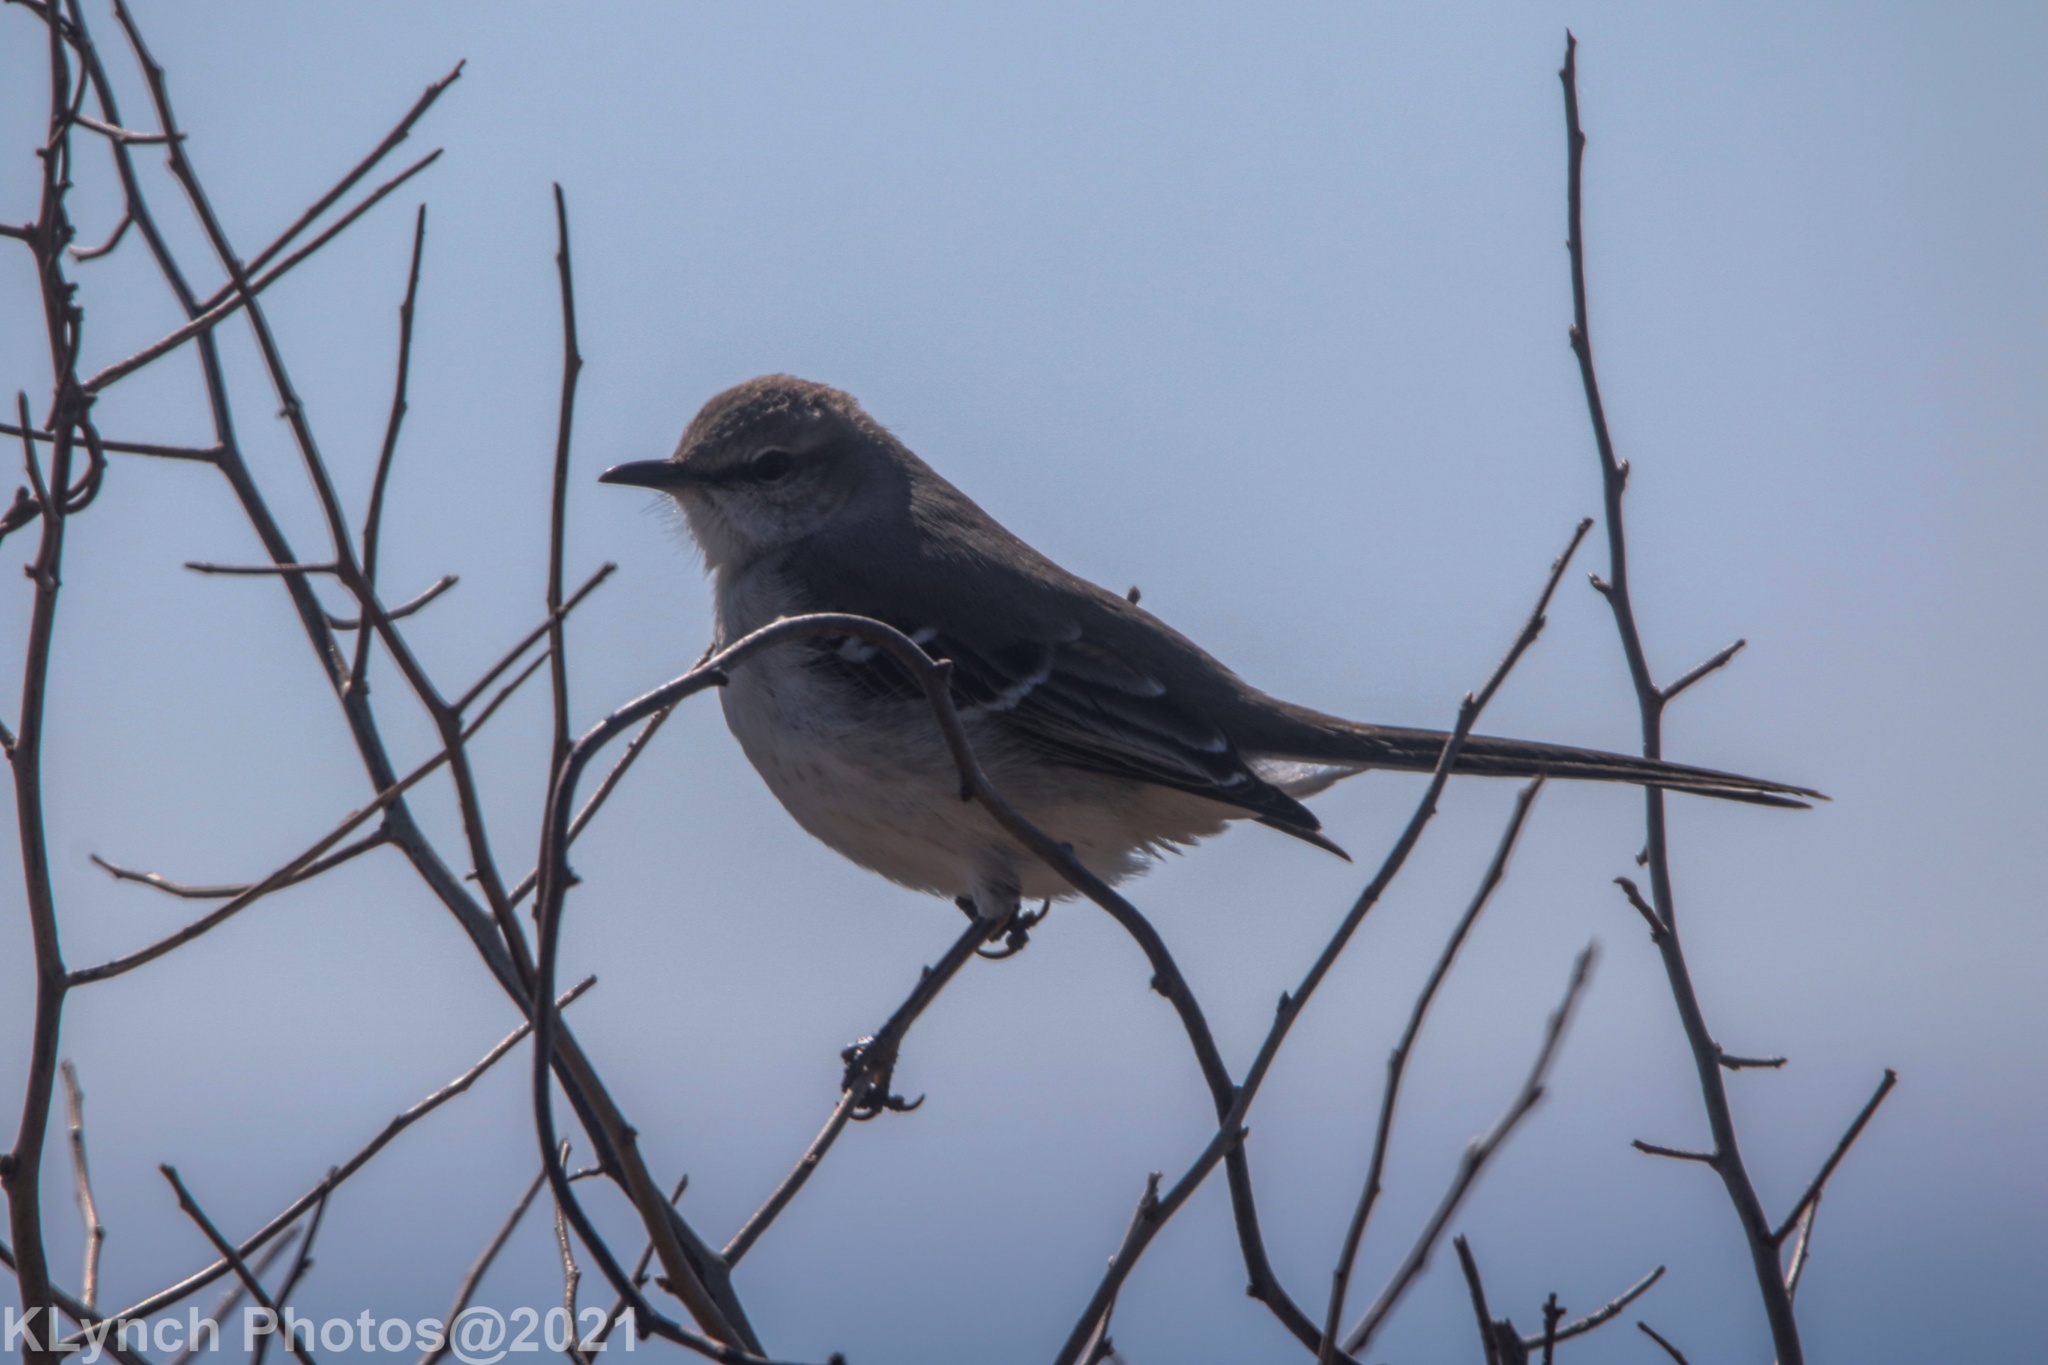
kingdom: Animalia
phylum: Chordata
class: Aves
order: Passeriformes
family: Mimidae
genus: Mimus
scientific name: Mimus polyglottos
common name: Northern mockingbird
